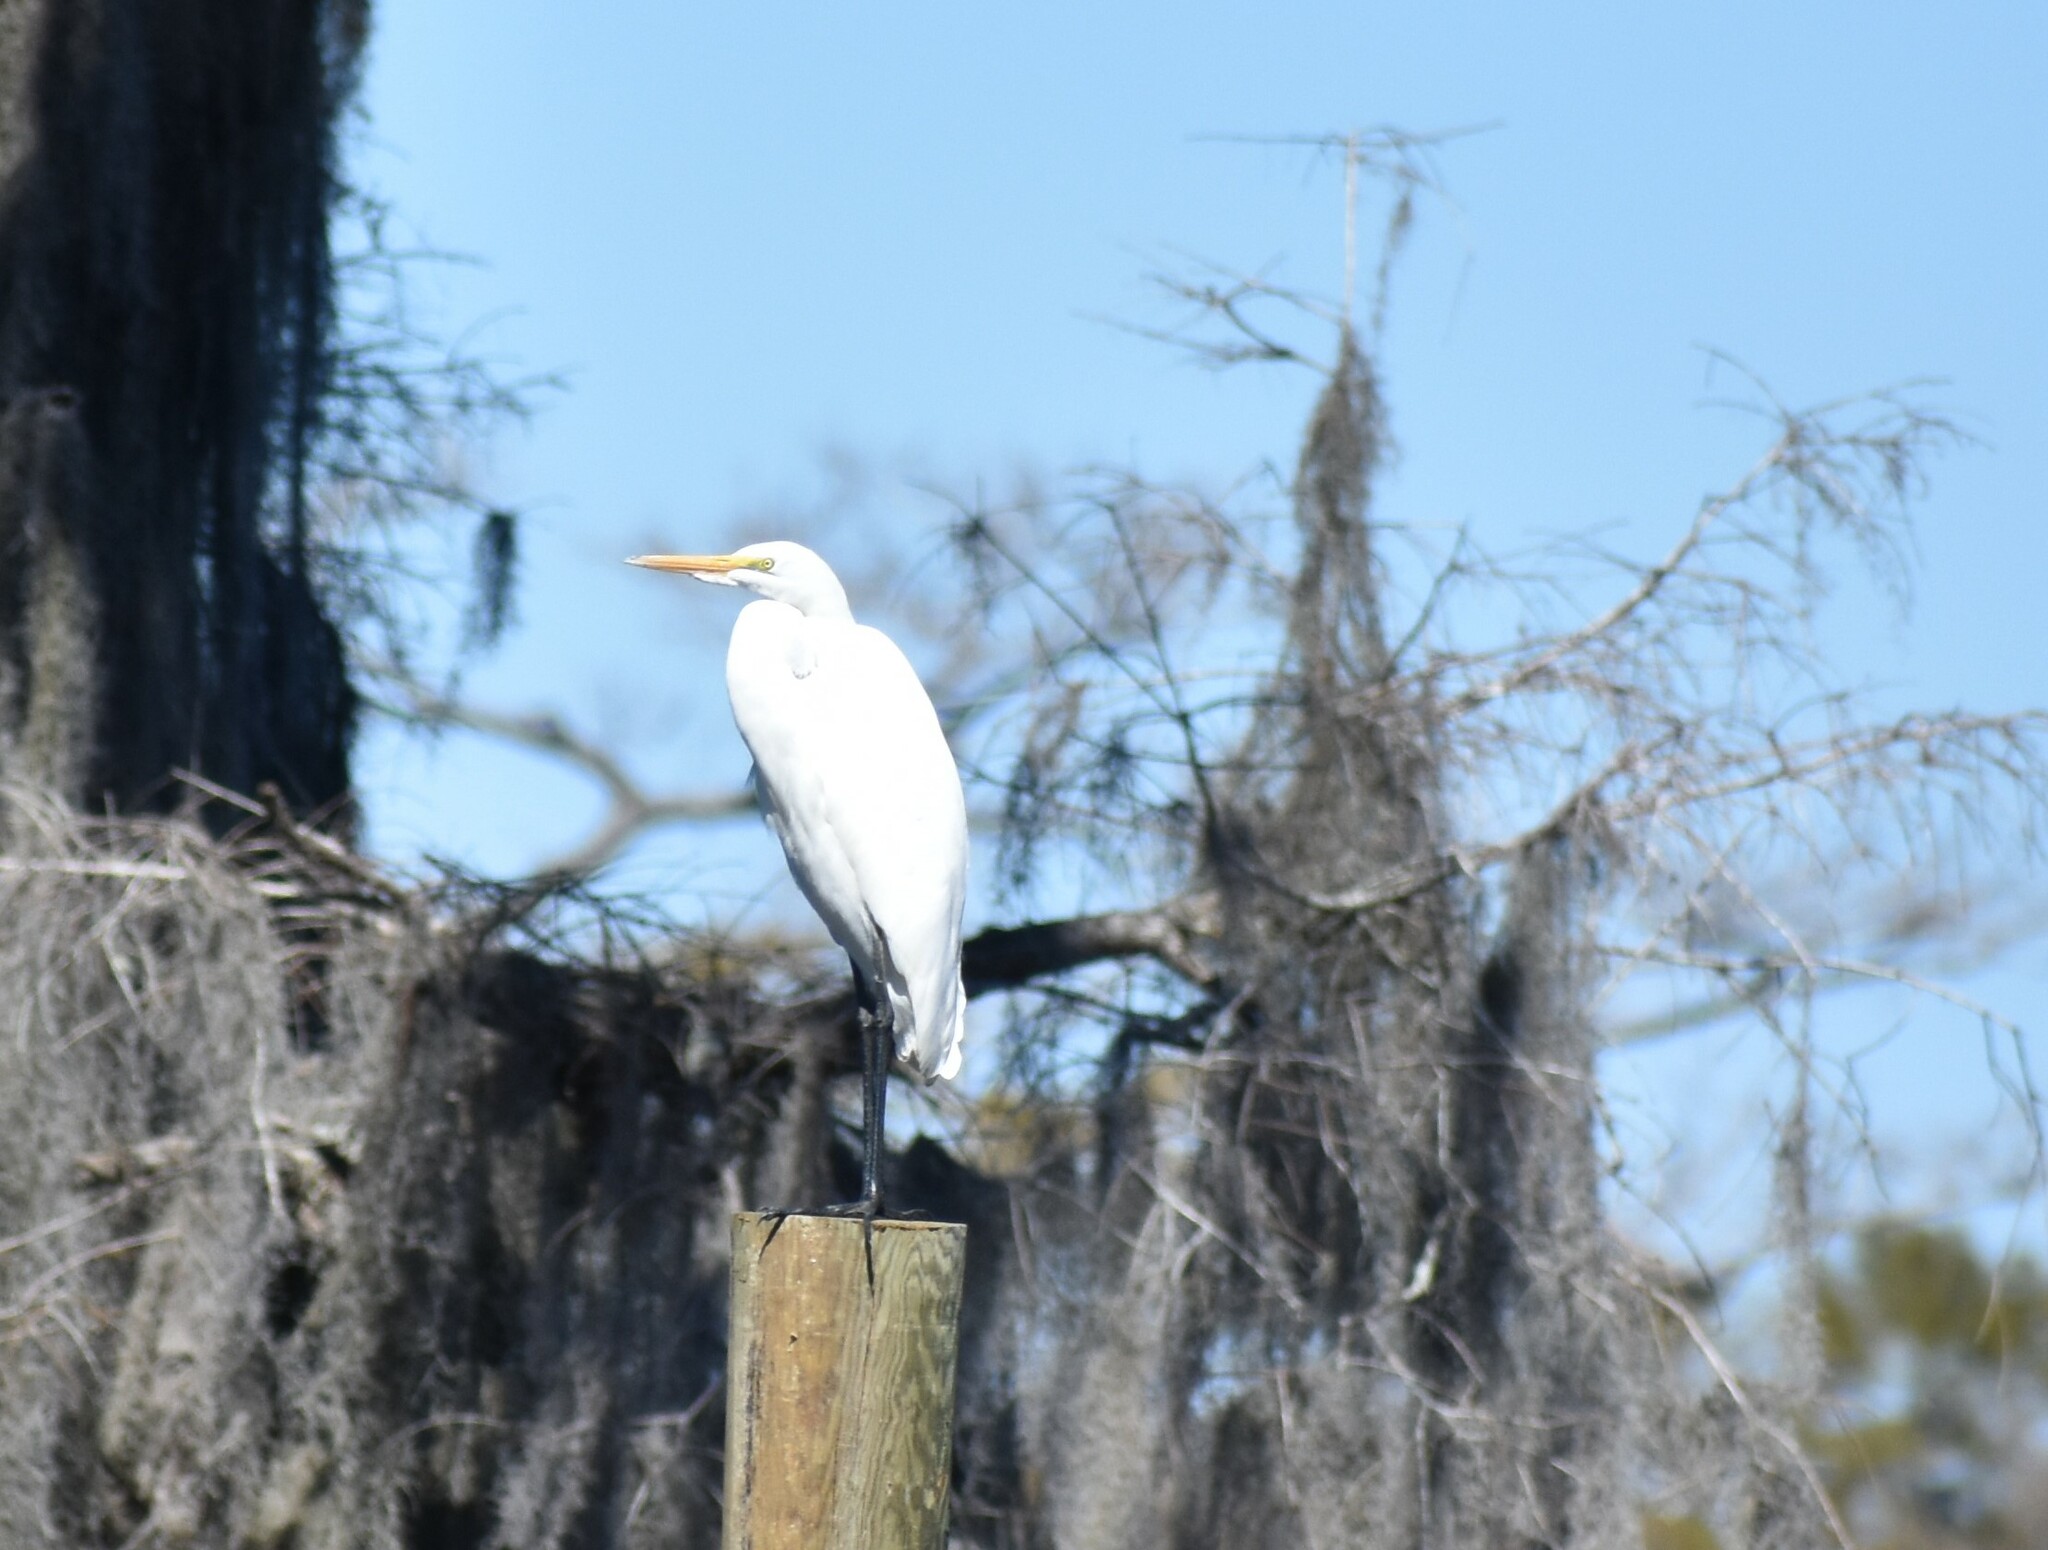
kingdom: Animalia
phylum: Chordata
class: Aves
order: Pelecaniformes
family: Ardeidae
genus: Ardea
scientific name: Ardea alba
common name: Great egret
